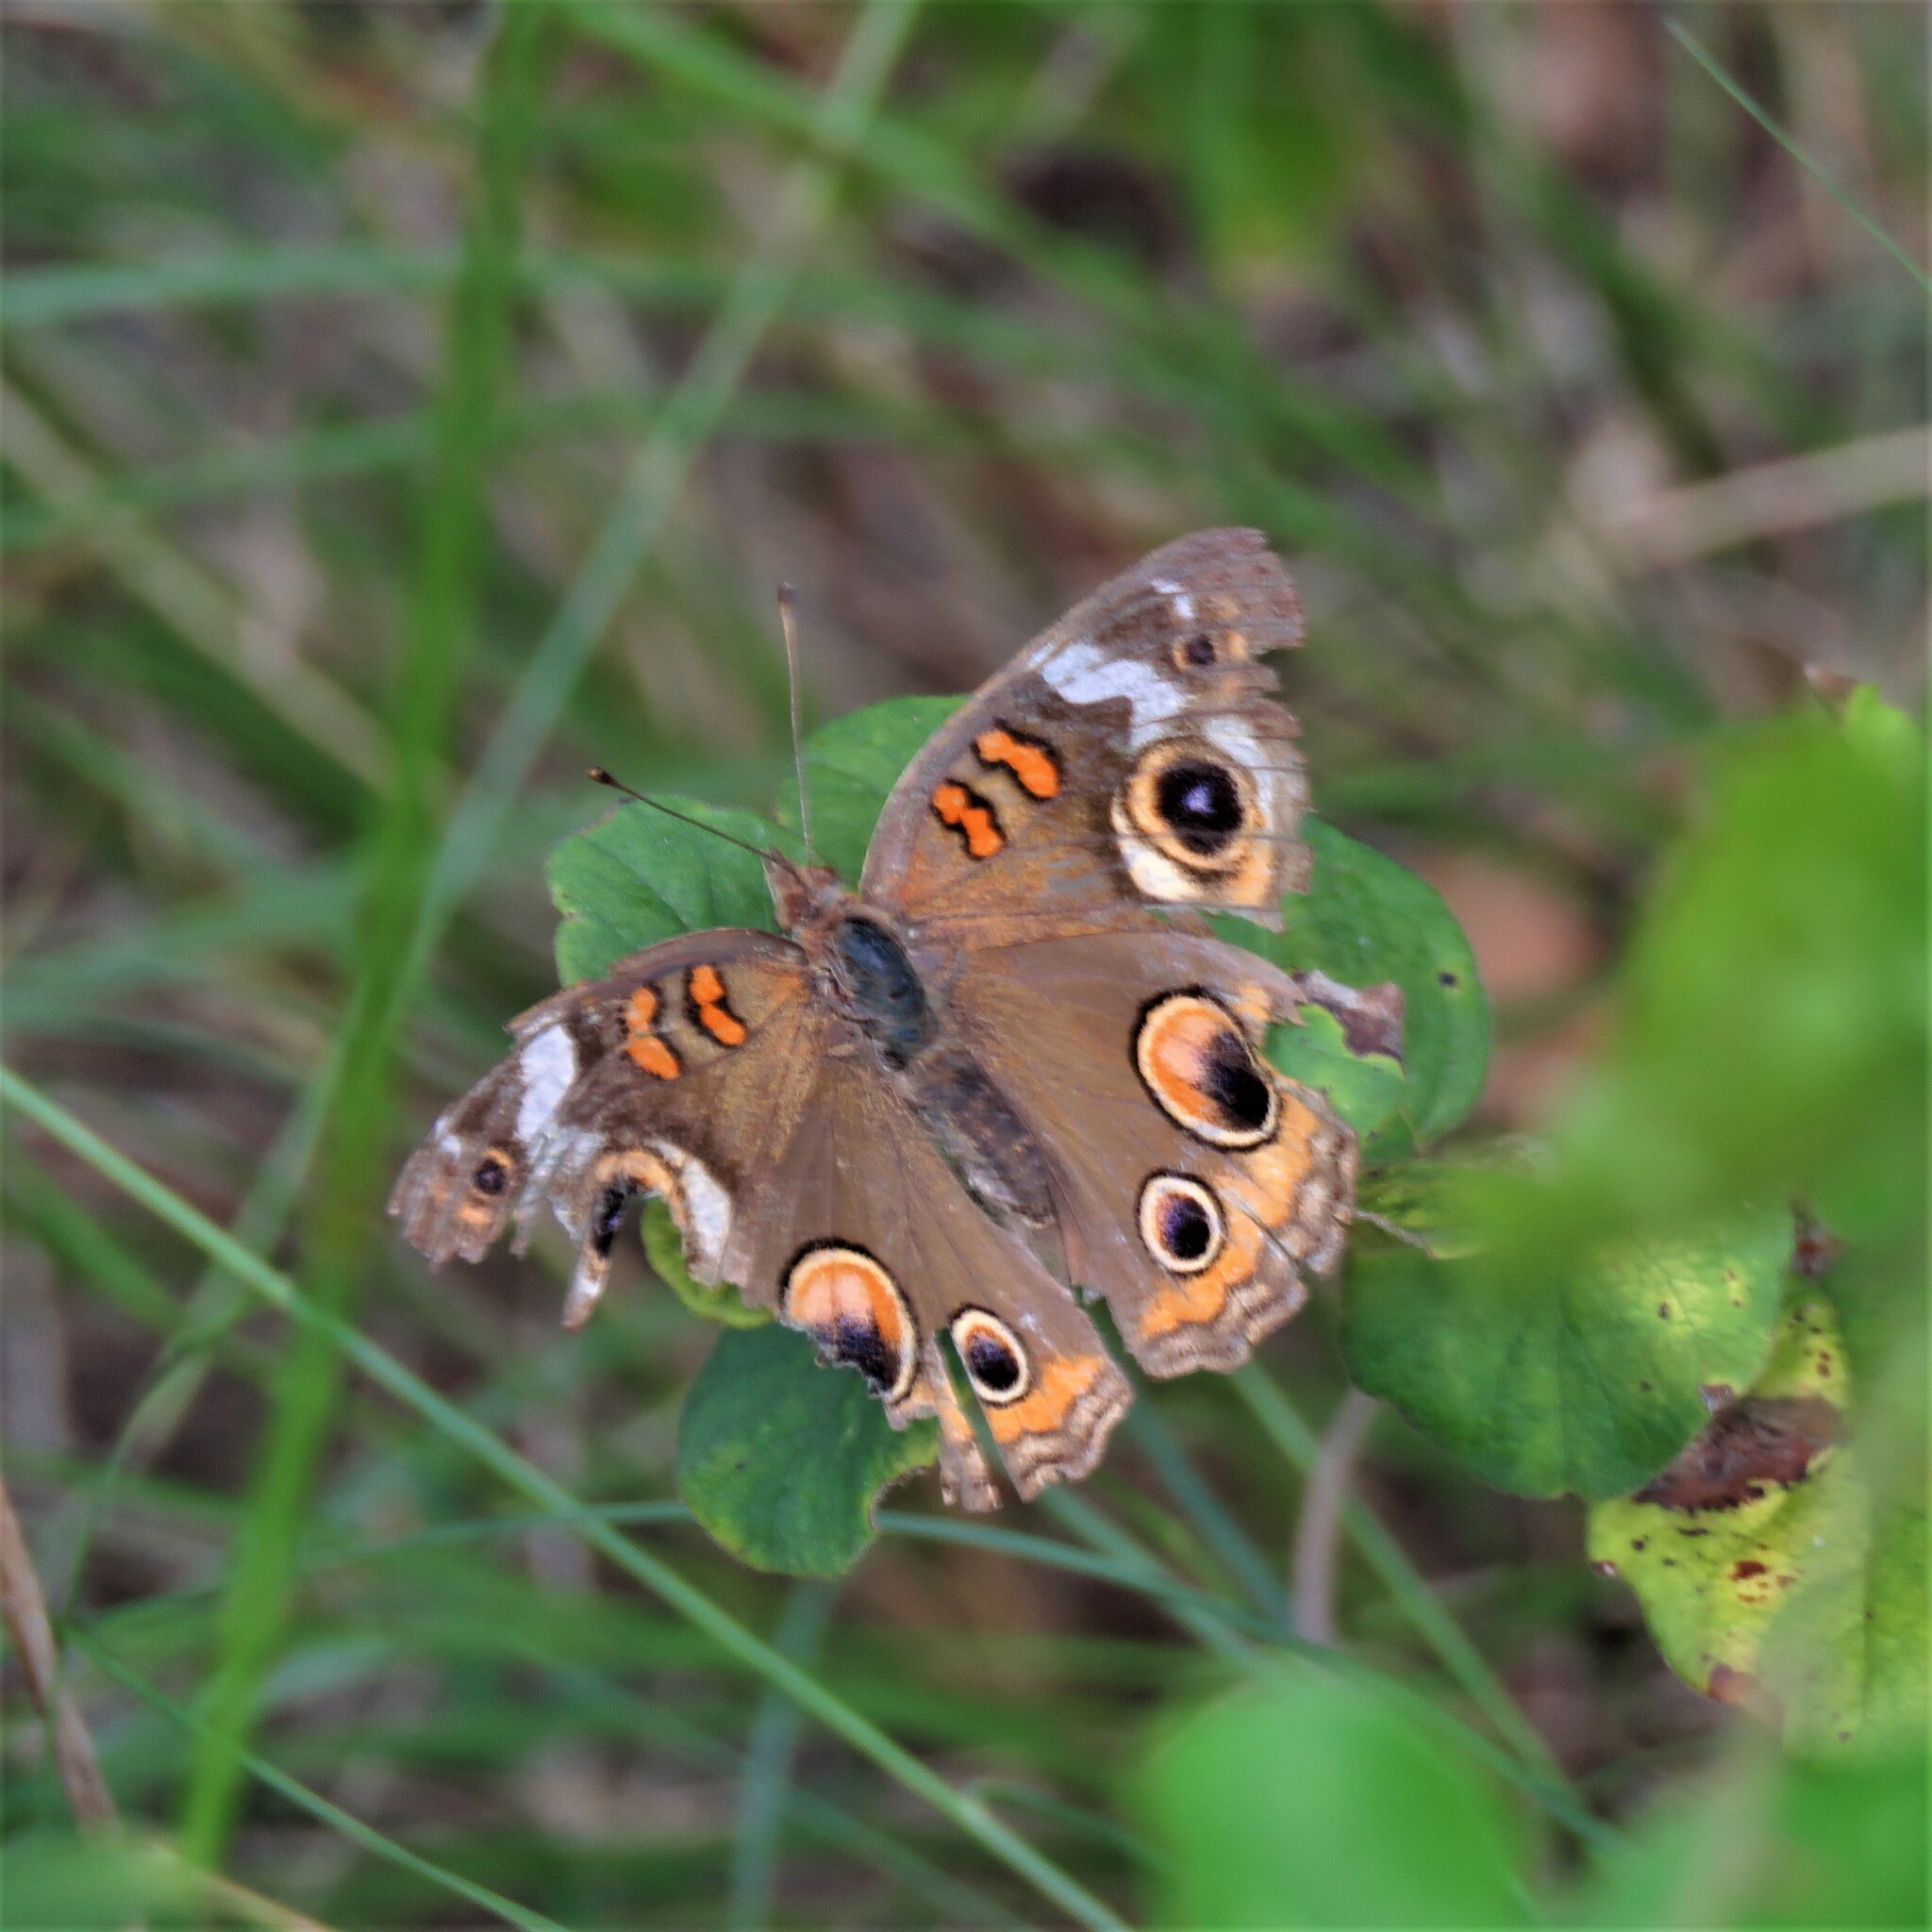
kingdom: Animalia
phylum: Arthropoda
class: Insecta
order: Lepidoptera
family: Nymphalidae
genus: Junonia
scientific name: Junonia coenia
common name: Common buckeye
